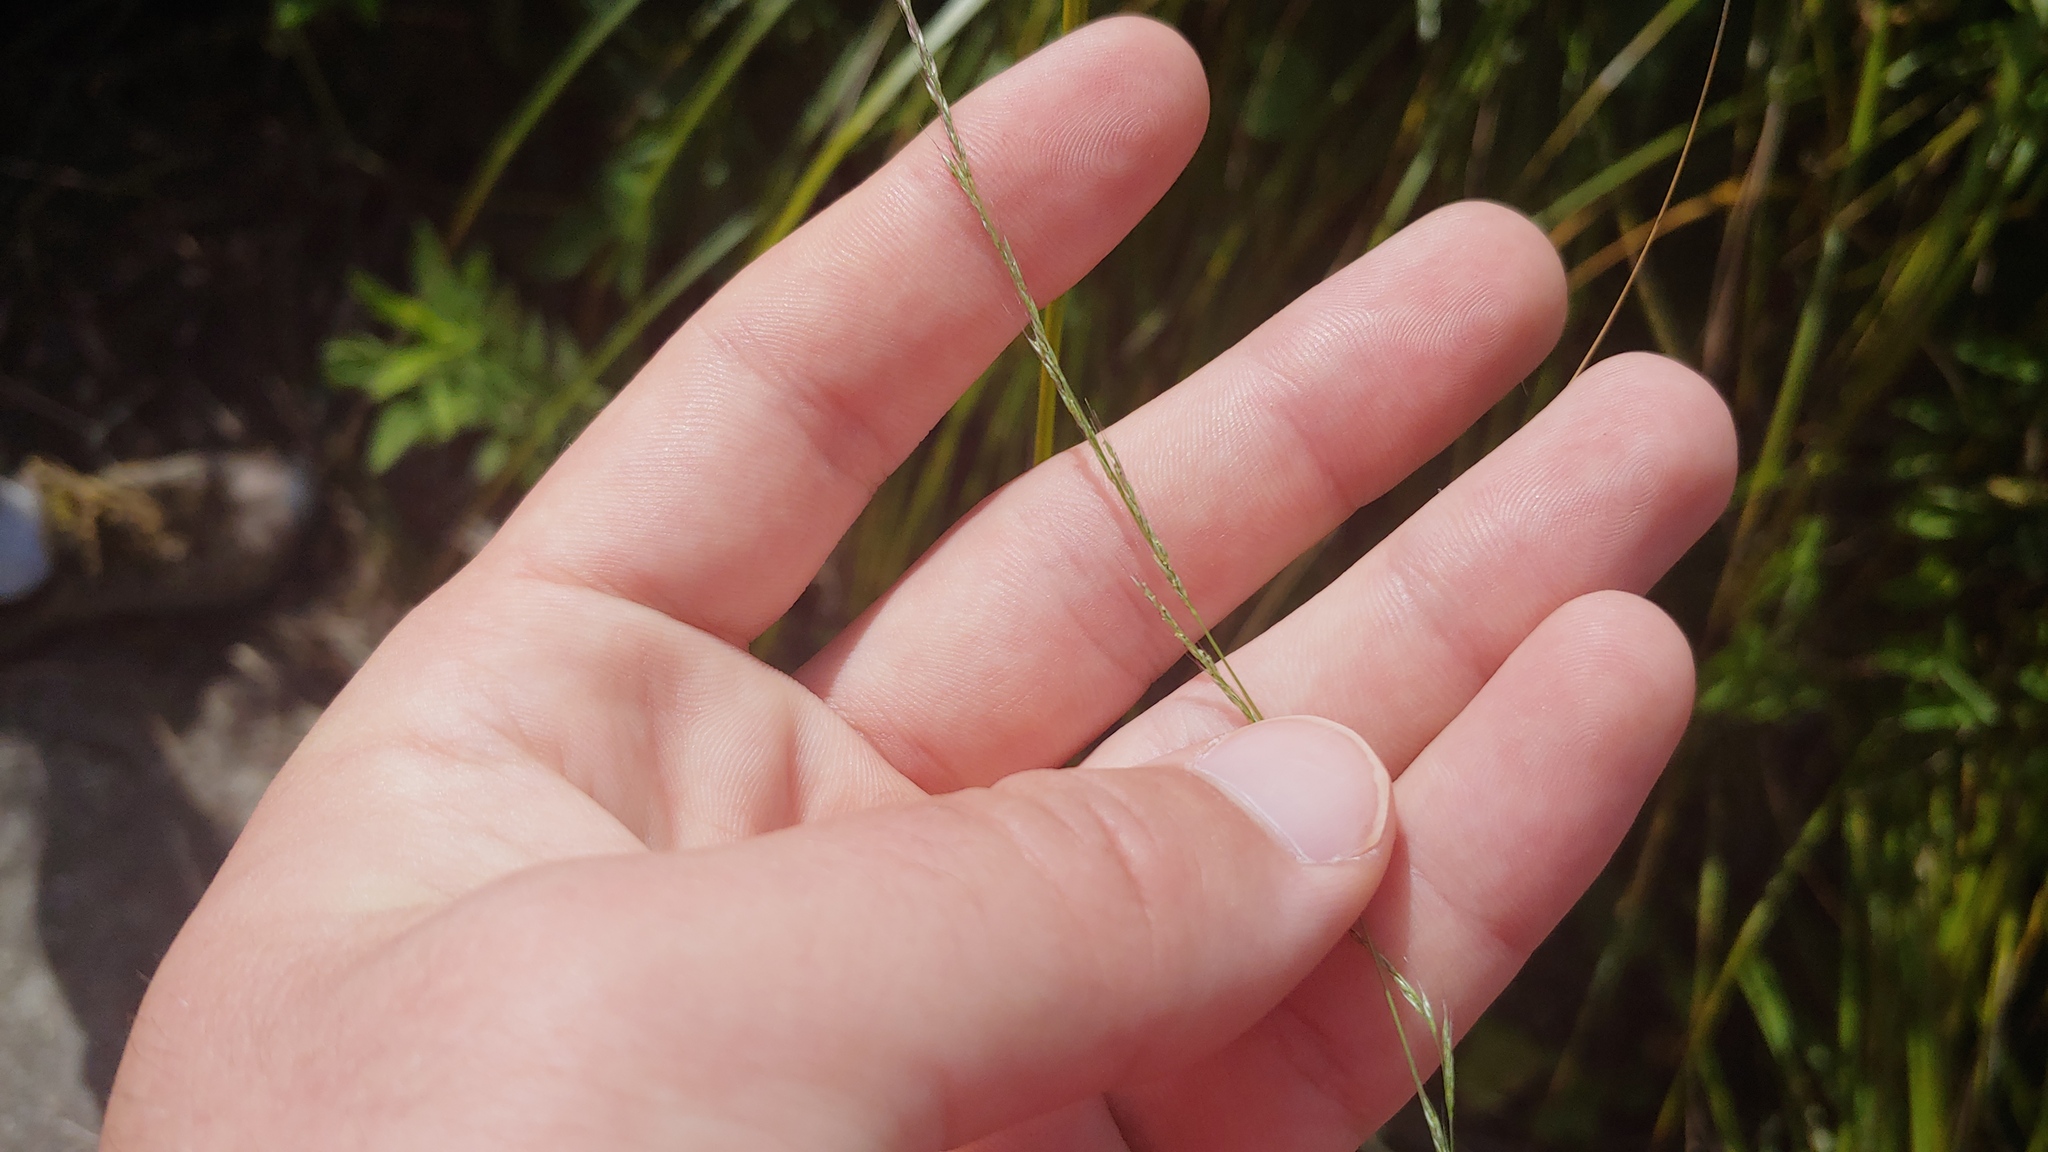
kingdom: Plantae
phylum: Tracheophyta
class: Liliopsida
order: Poales
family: Poaceae
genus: Muhlenbergia
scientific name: Muhlenbergia schreberi
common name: Nimblewill
